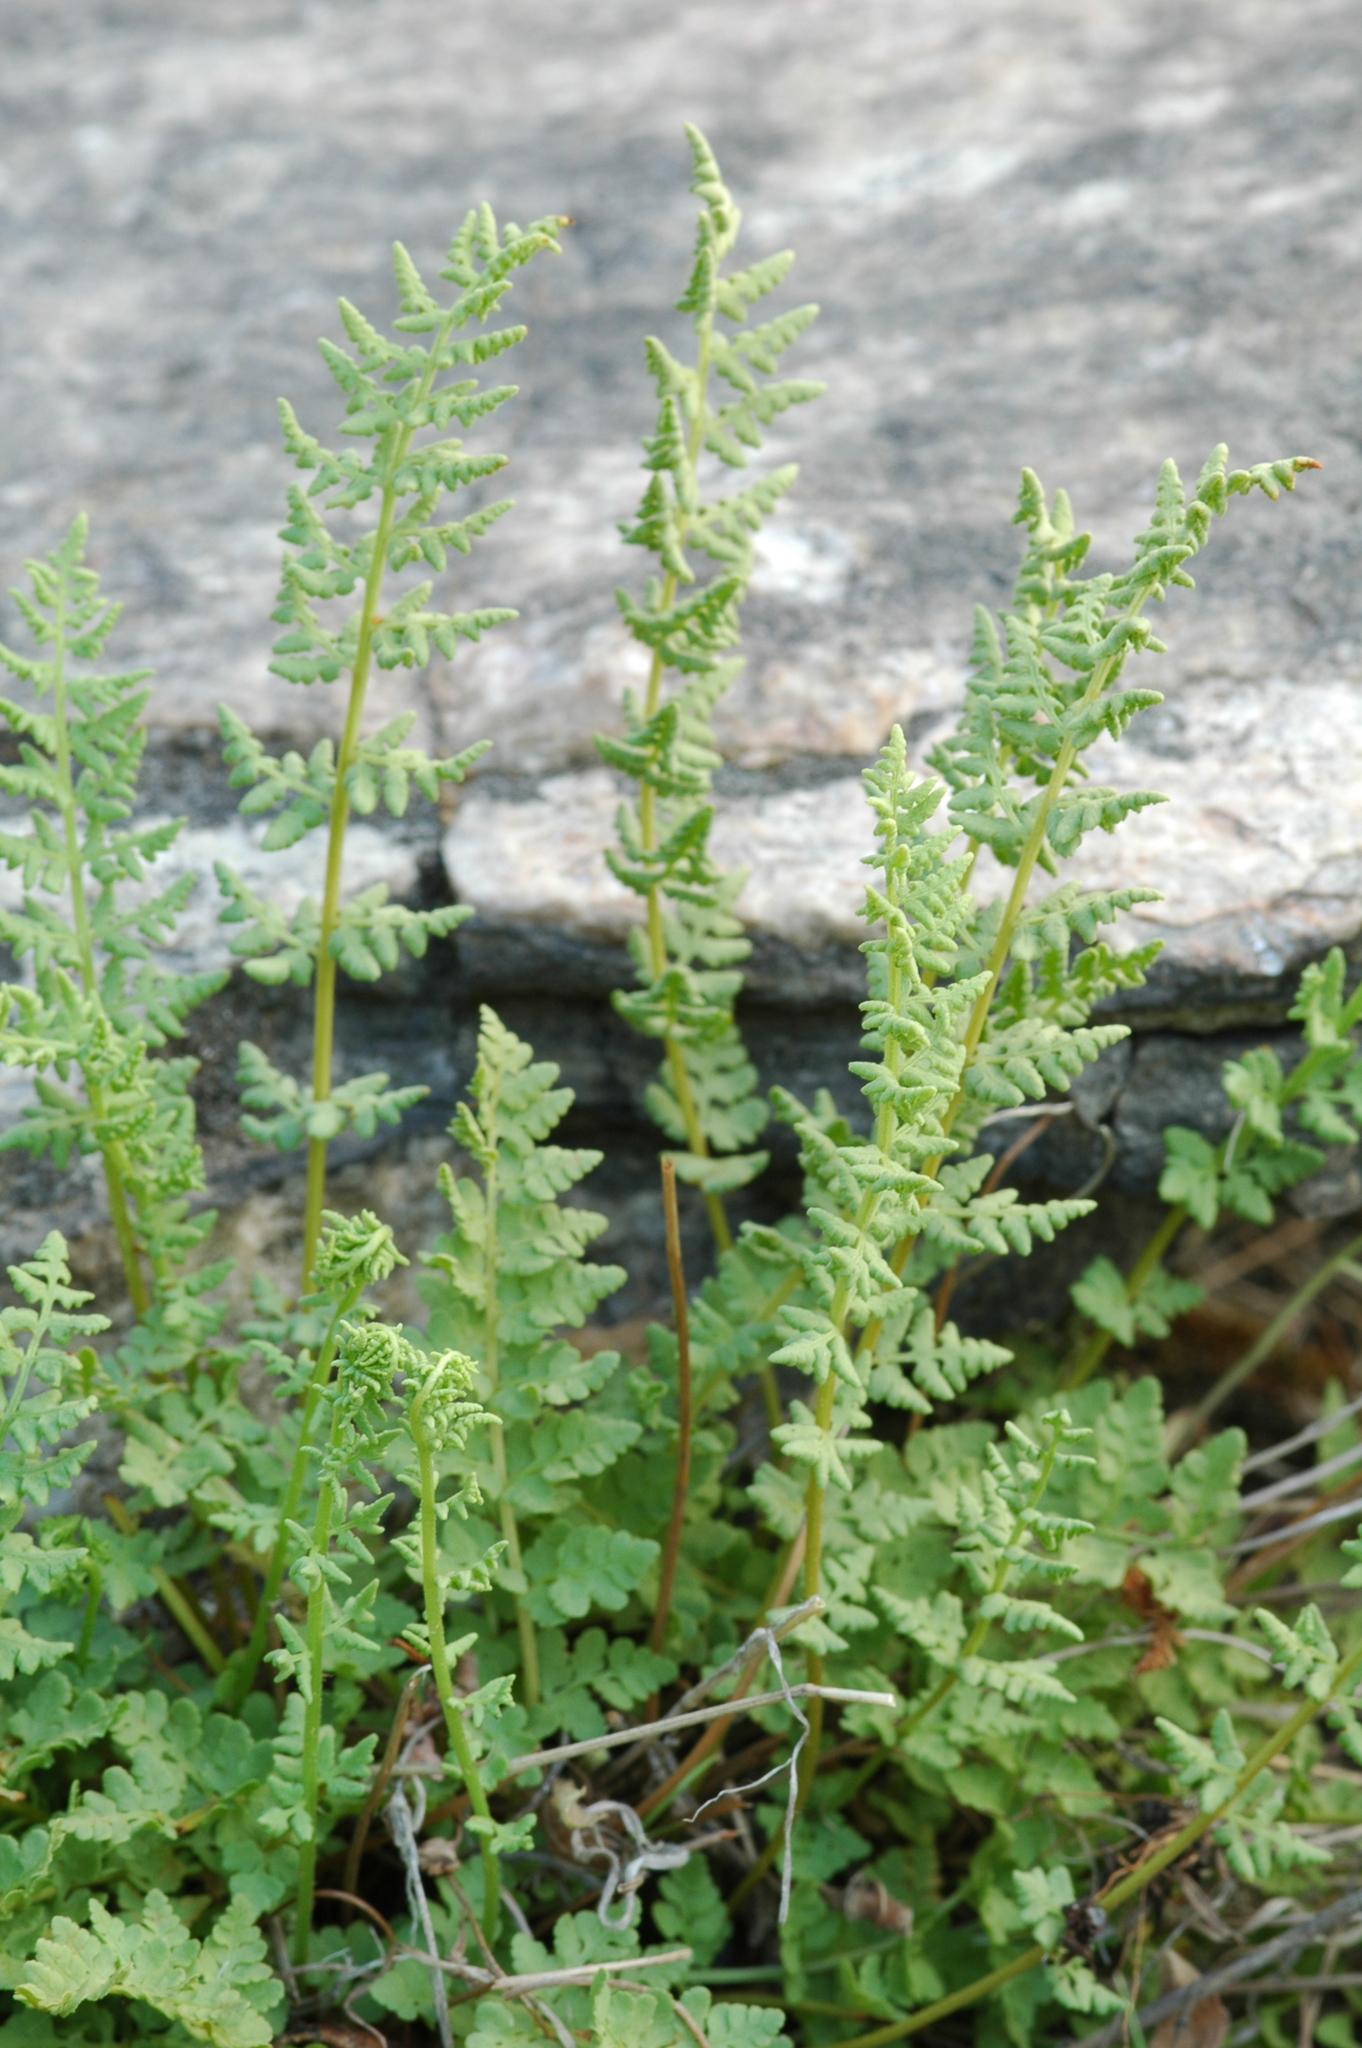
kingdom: Plantae
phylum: Tracheophyta
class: Polypodiopsida
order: Polypodiales
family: Woodsiaceae
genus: Physematium
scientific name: Physematium oreganum
